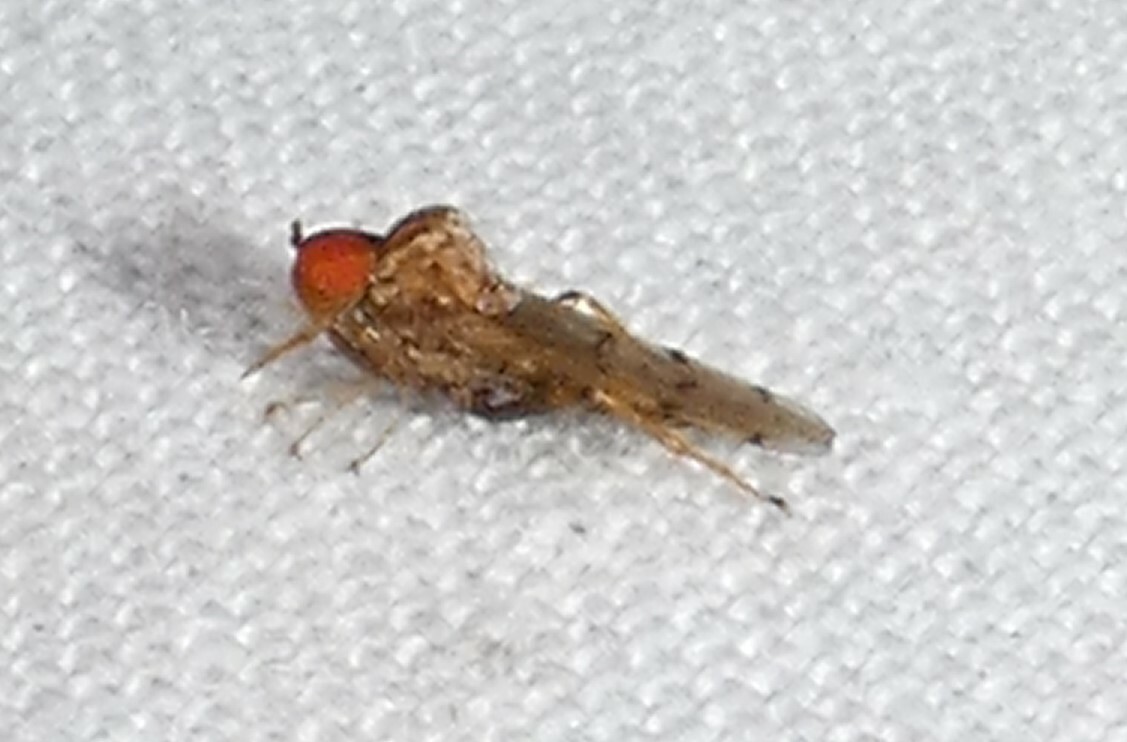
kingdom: Animalia
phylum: Arthropoda
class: Insecta
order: Diptera
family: Hybotidae
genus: Syneches
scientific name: Syneches simplex
